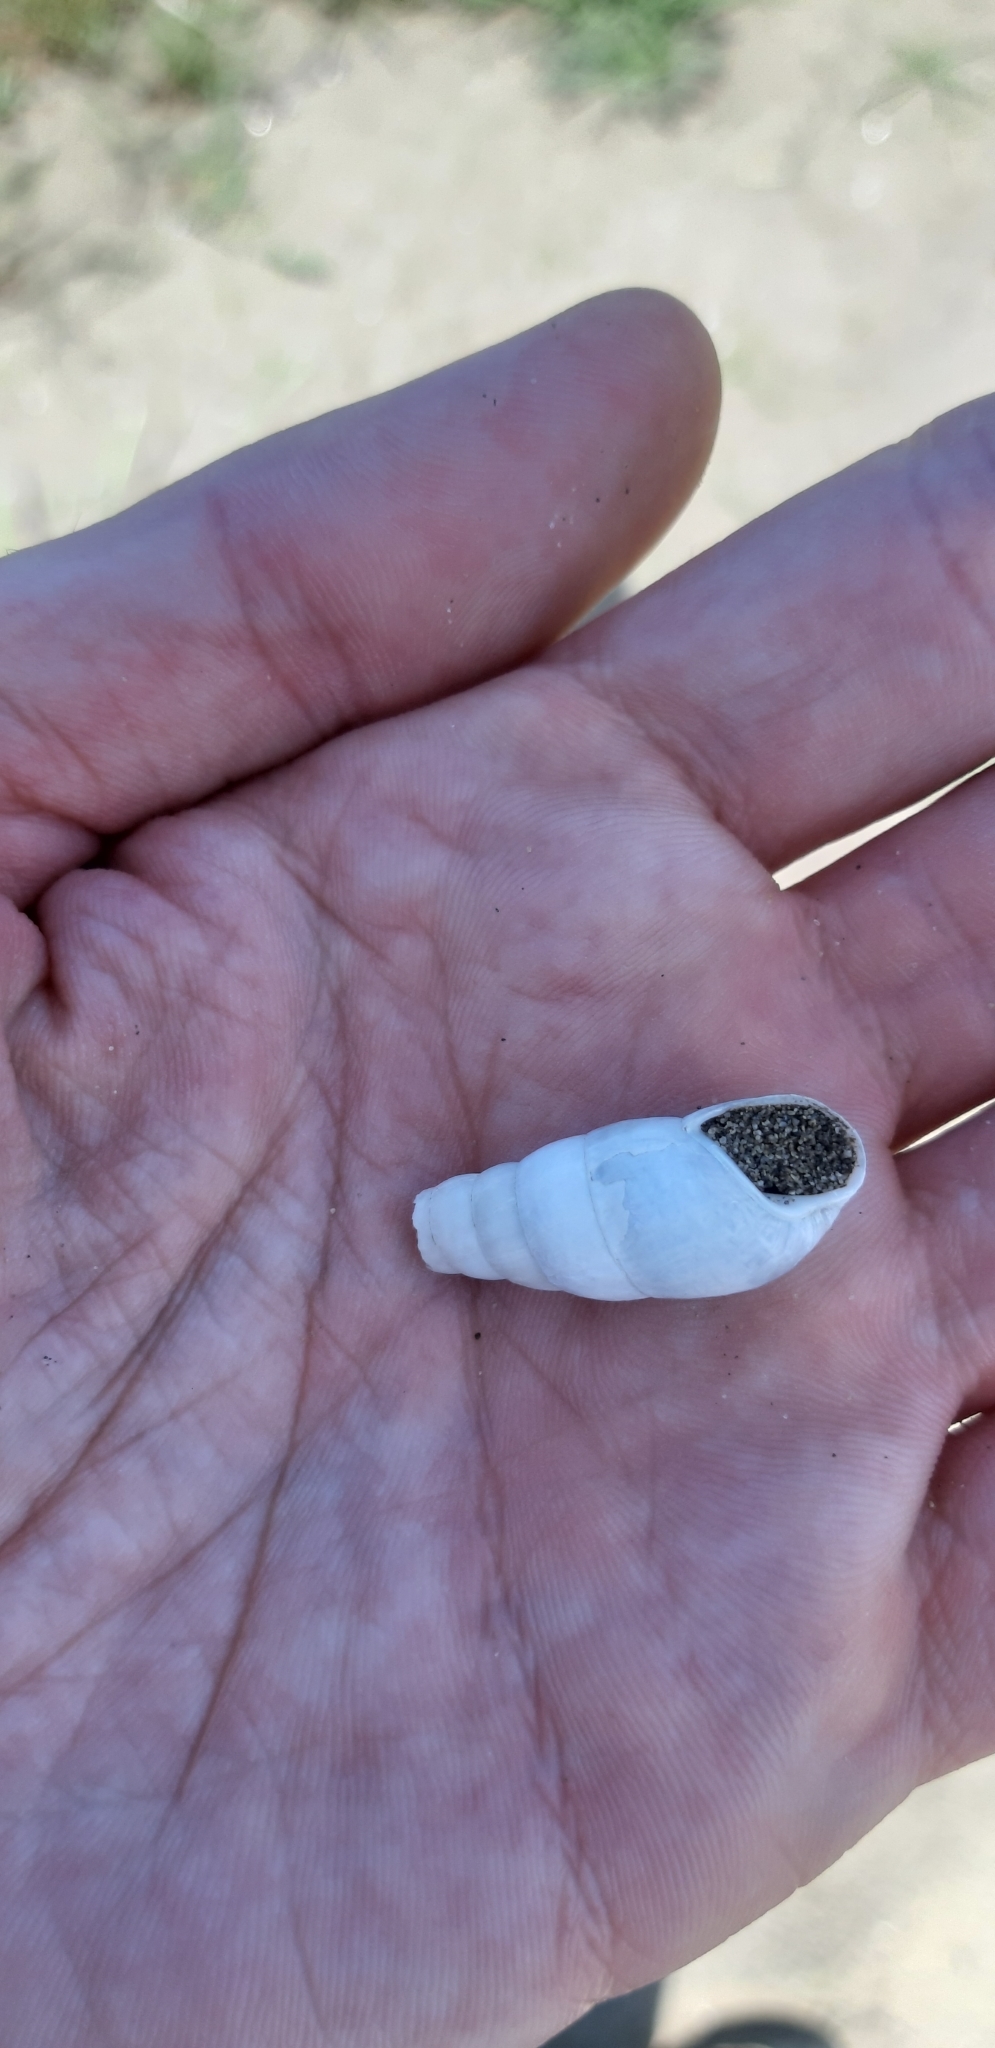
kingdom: Animalia
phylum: Mollusca
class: Gastropoda
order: Stylommatophora
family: Achatinidae
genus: Rumina
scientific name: Rumina decollata
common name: Decollate snail
